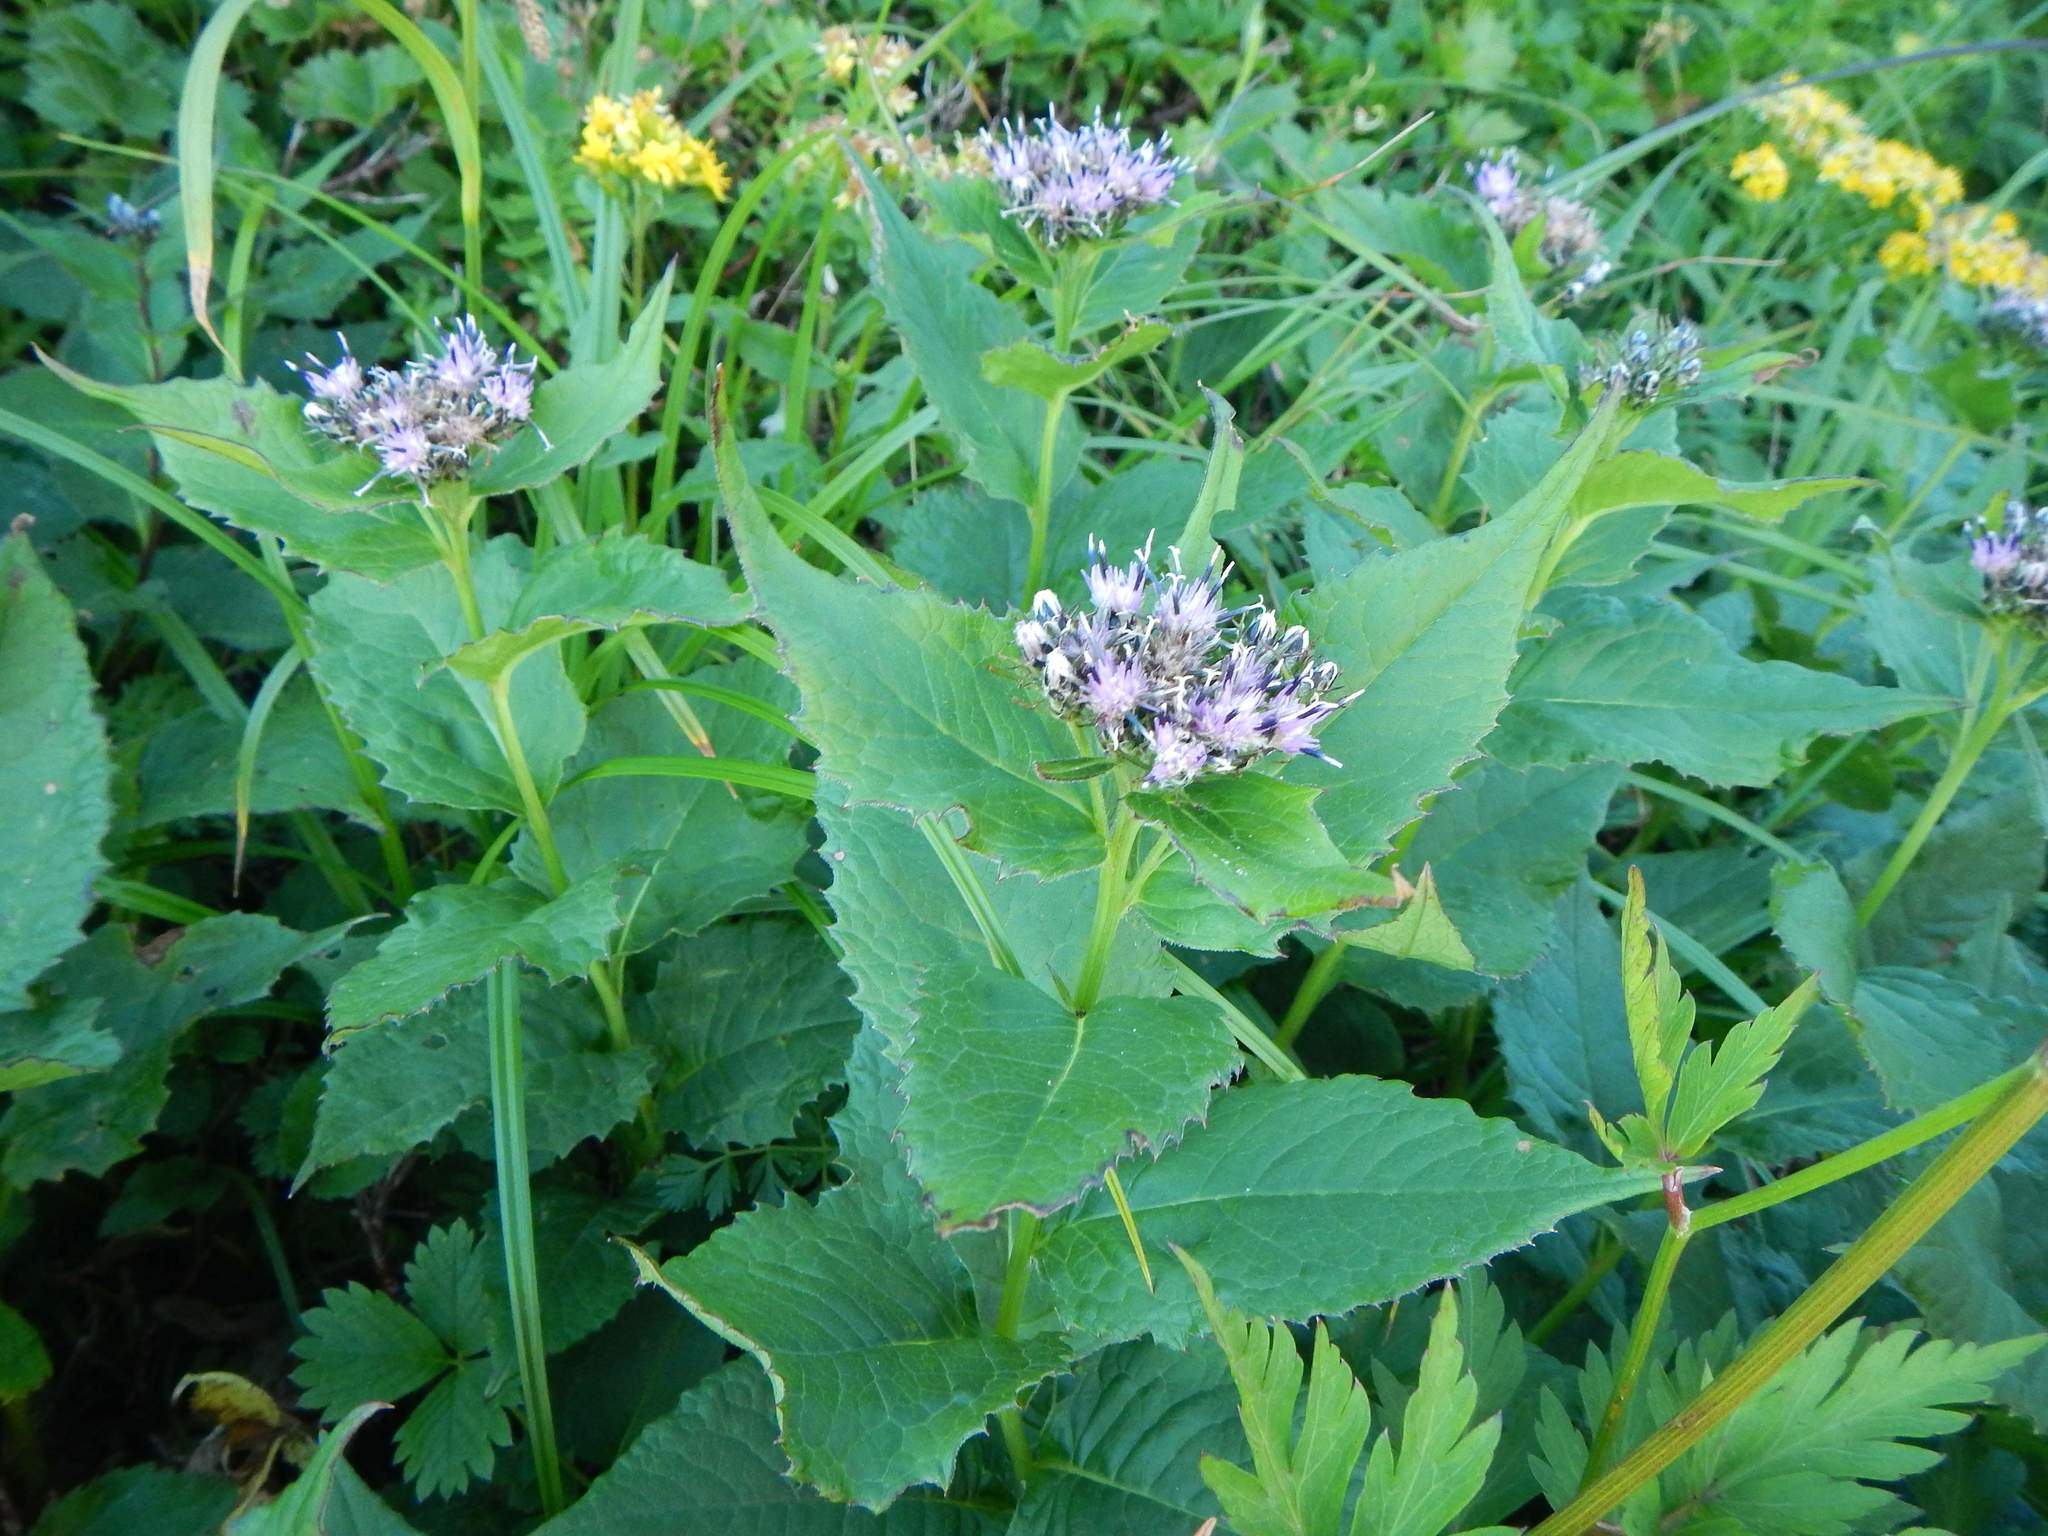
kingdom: Plantae
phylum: Tracheophyta
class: Magnoliopsida
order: Asterales
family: Asteraceae
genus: Saussurea
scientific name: Saussurea riederi
